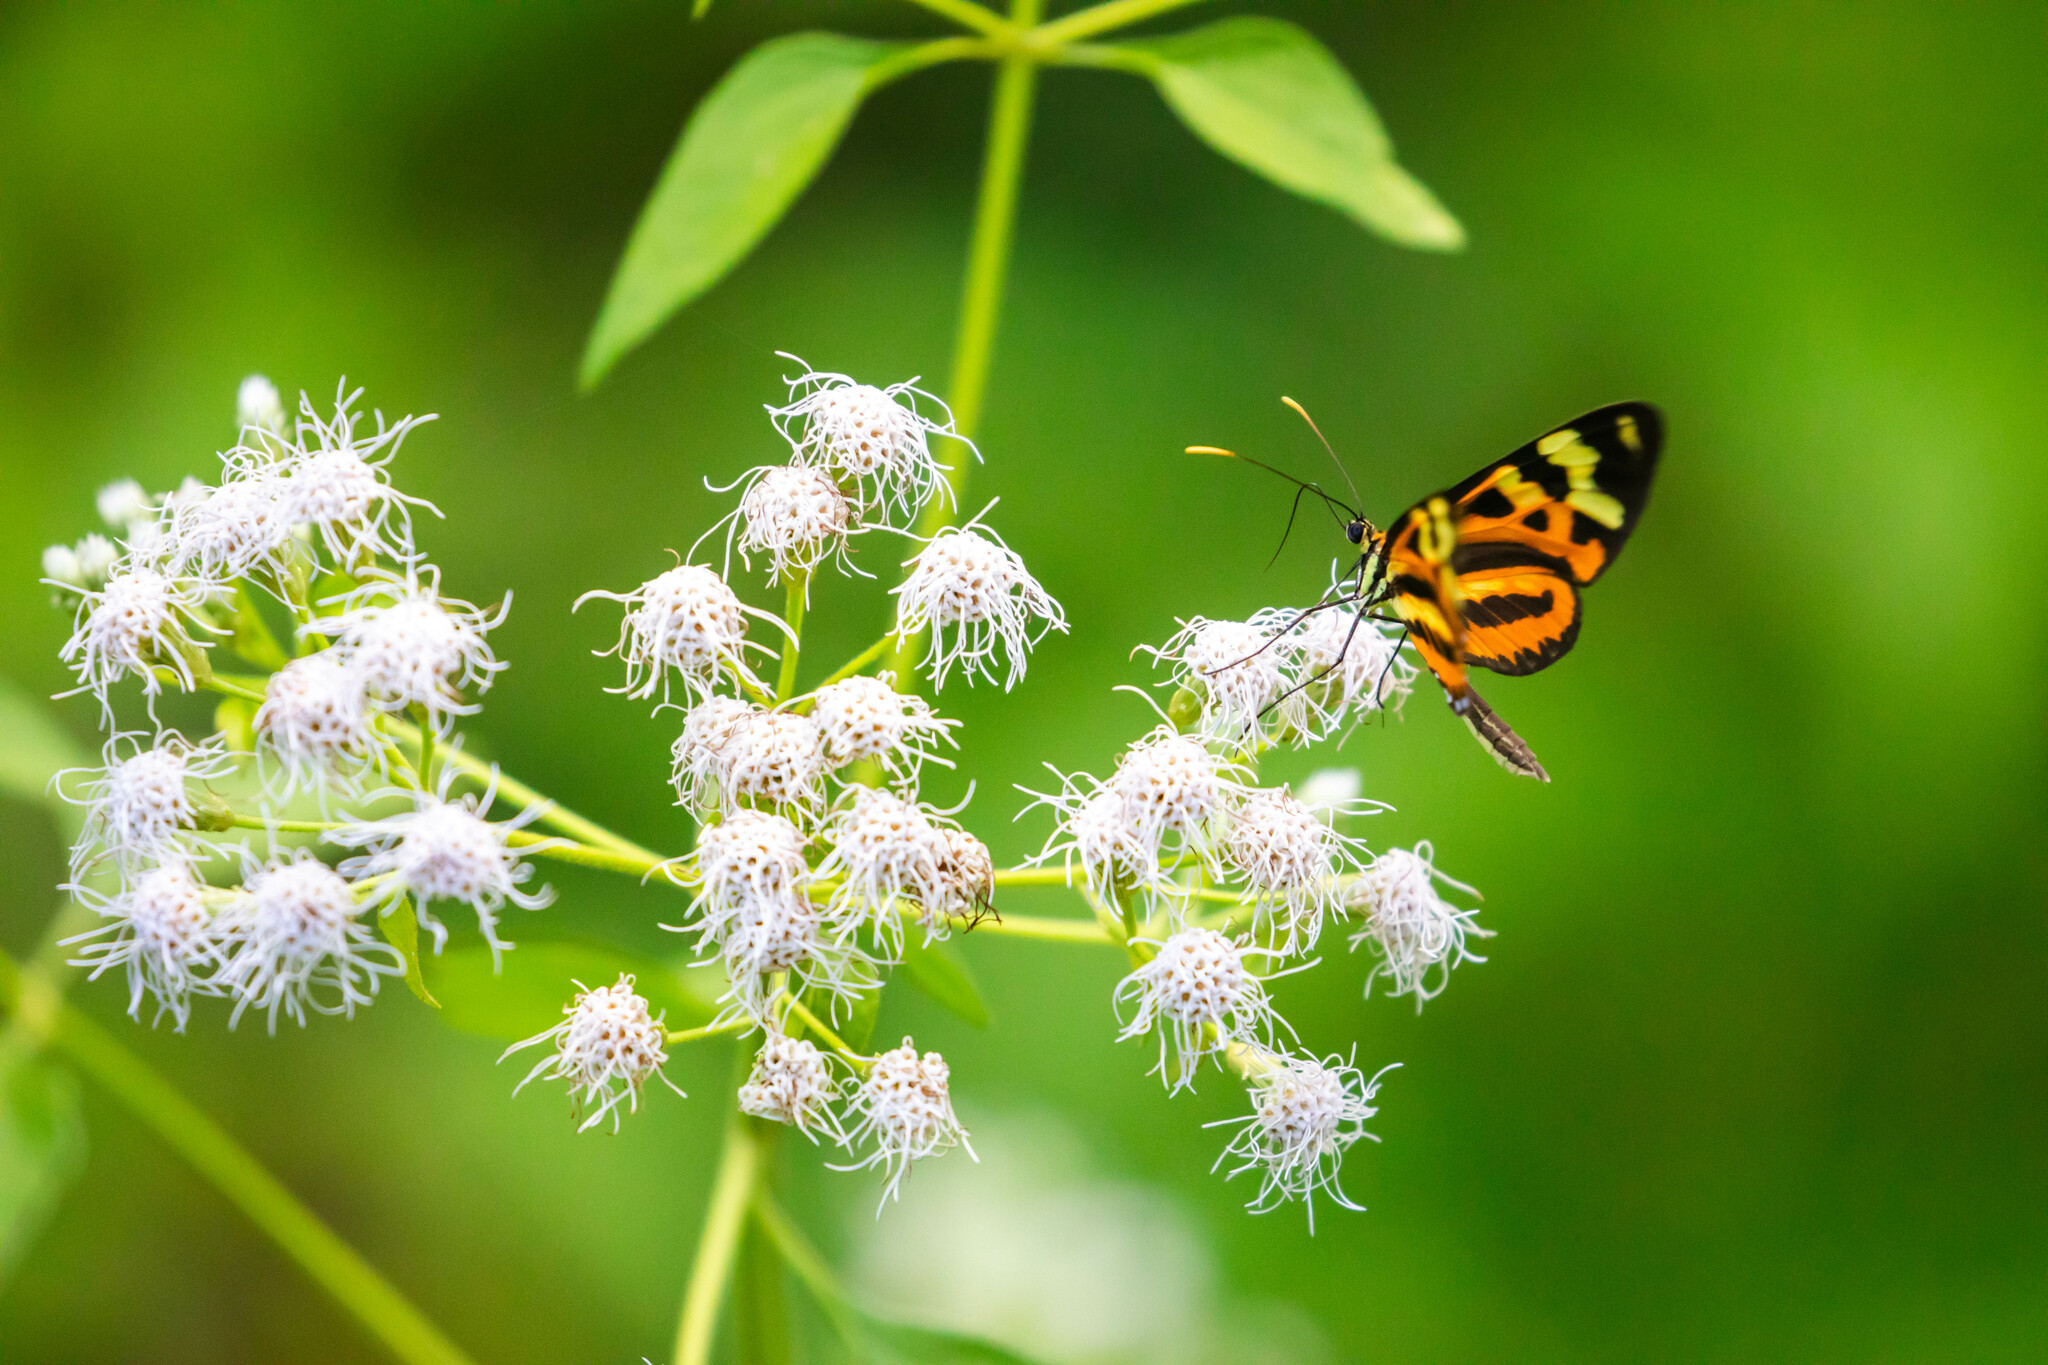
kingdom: Animalia
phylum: Arthropoda
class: Insecta
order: Lepidoptera
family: Nymphalidae
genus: Mechanitis
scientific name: Mechanitis polymnia
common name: Disturbed tigerwing
